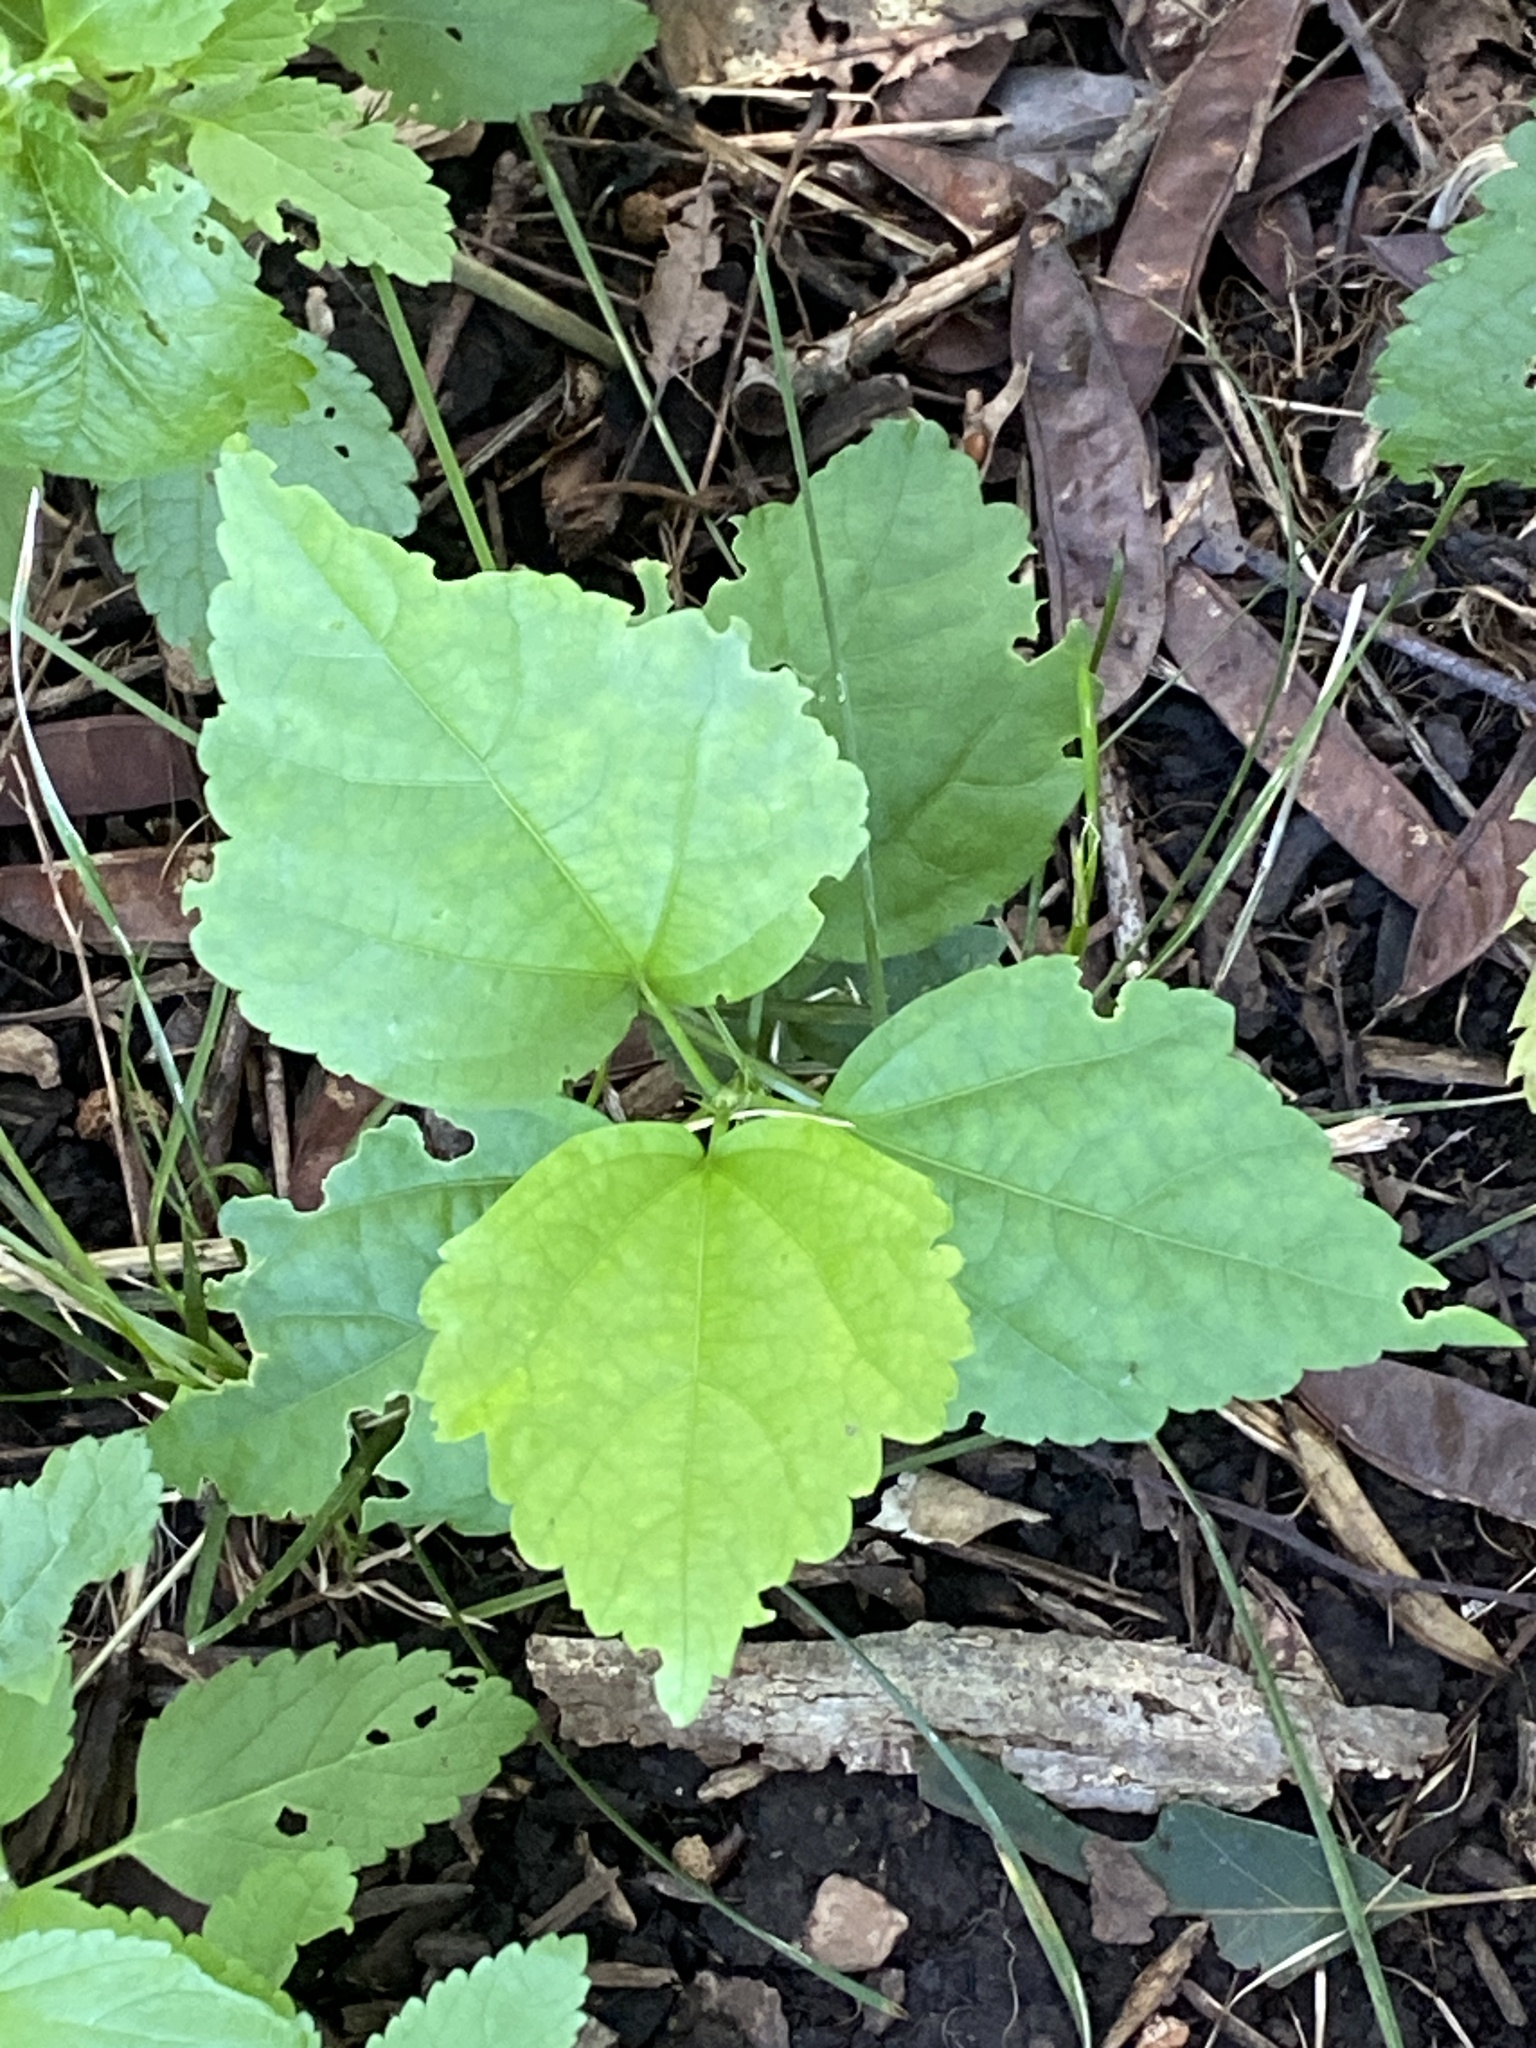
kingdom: Plantae
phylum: Tracheophyta
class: Magnoliopsida
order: Malvales
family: Malvaceae
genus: Hibiscus
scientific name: Hibiscus syriacus
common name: Syrian ketmia
